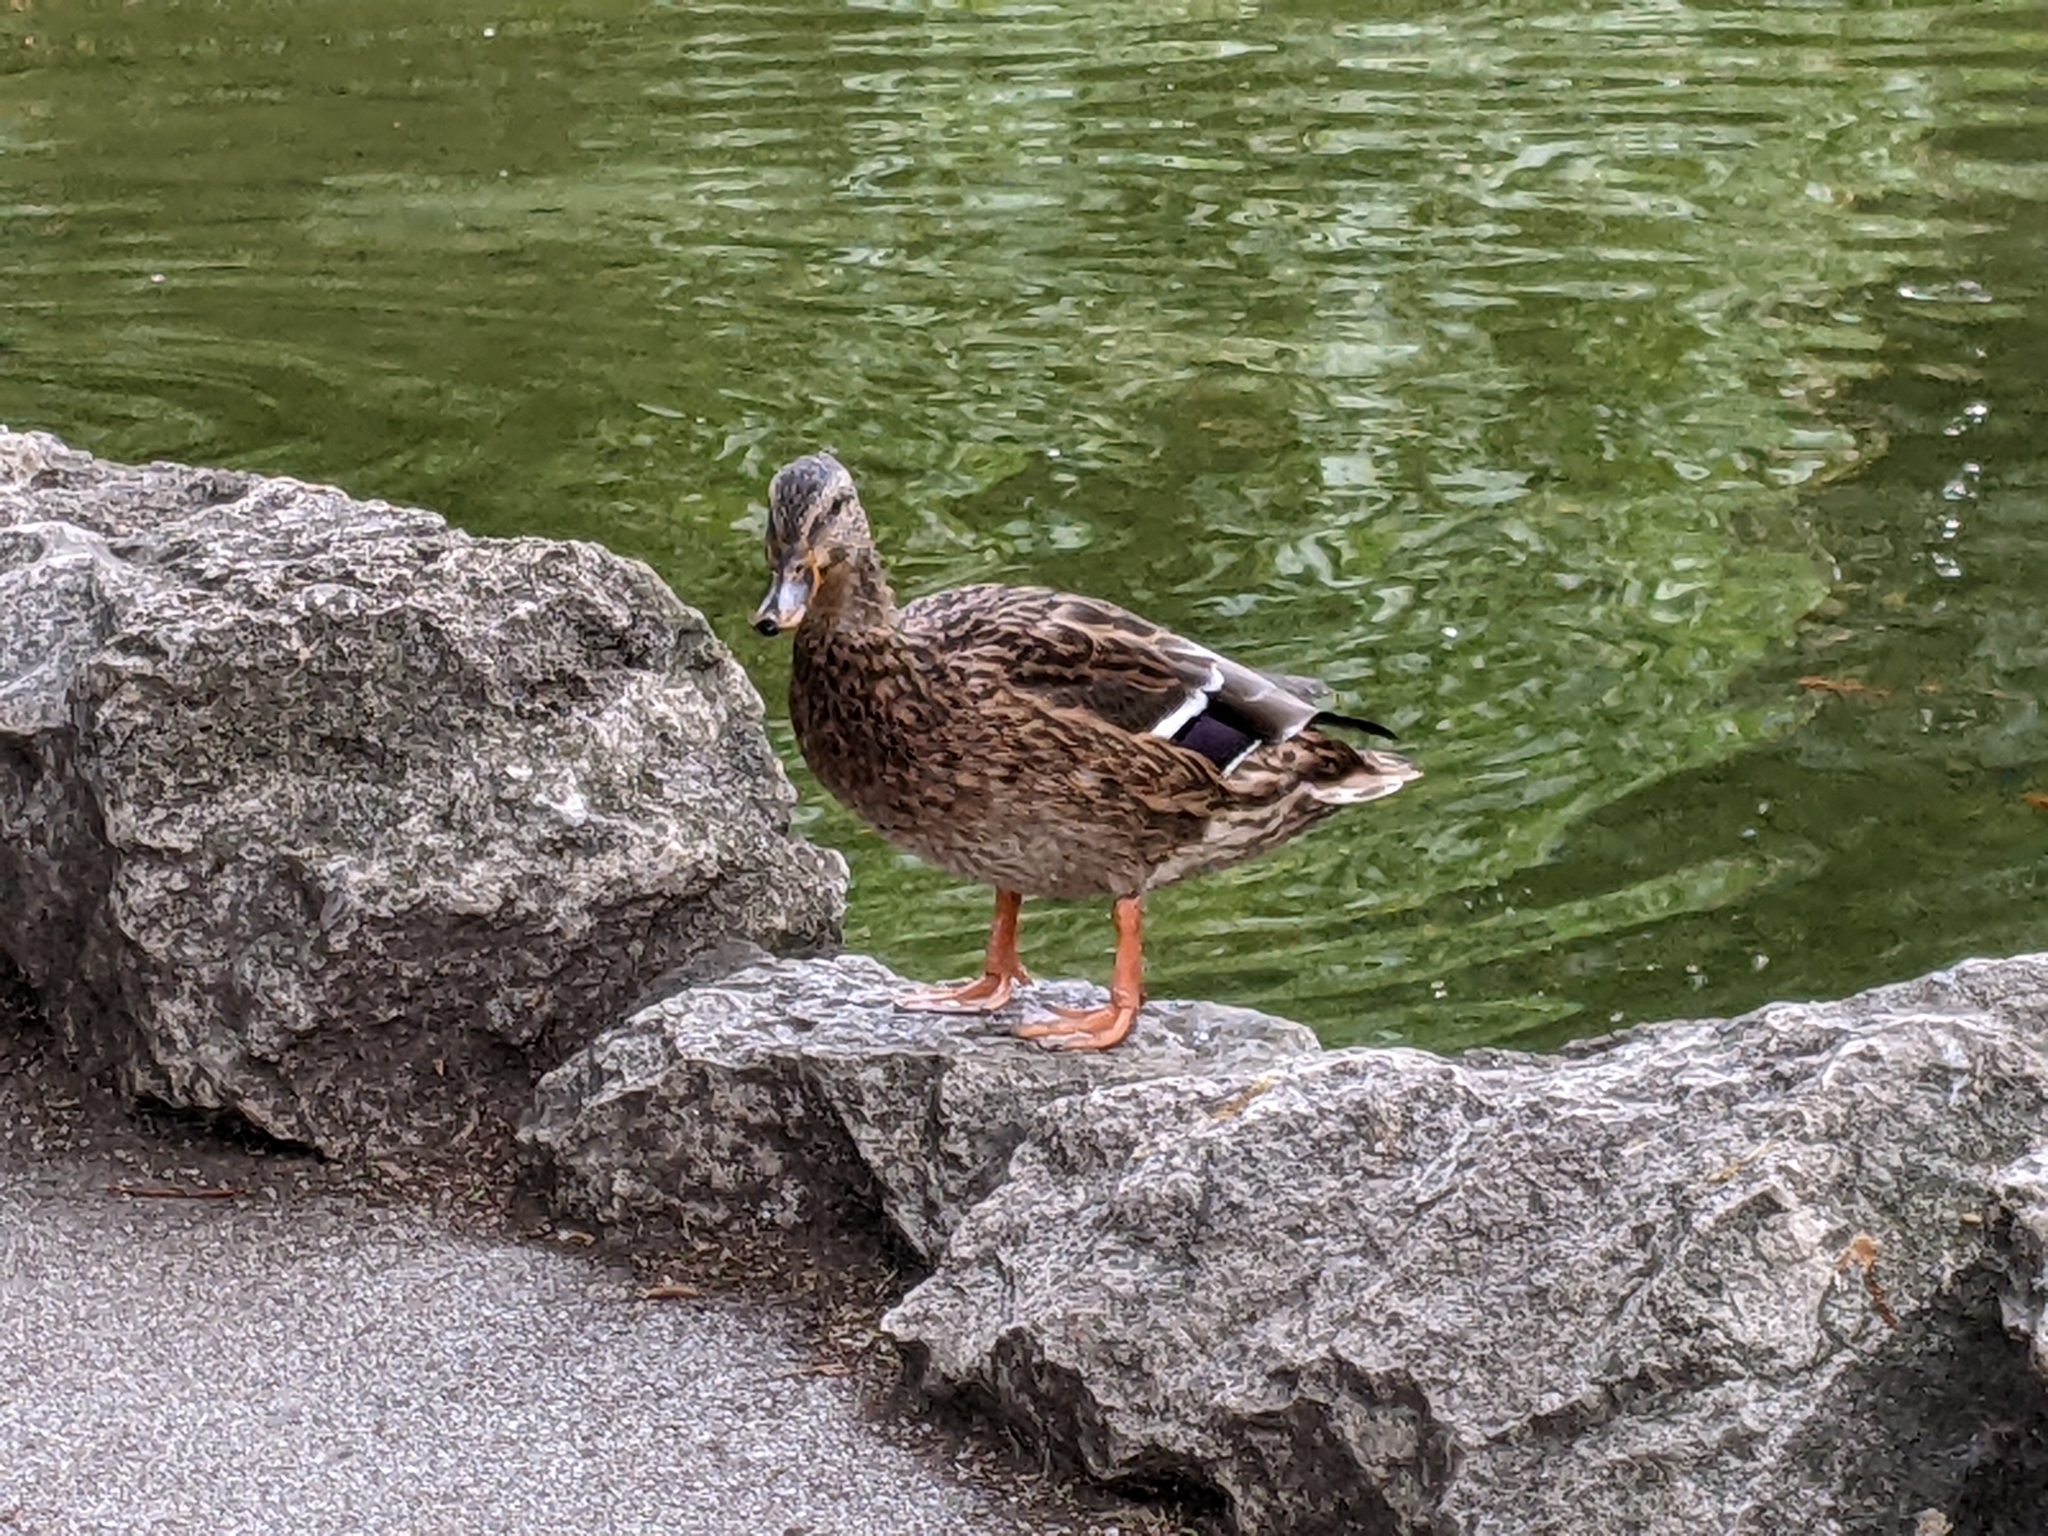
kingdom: Animalia
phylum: Chordata
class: Aves
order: Anseriformes
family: Anatidae
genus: Anas
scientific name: Anas platyrhynchos
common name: Mallard
